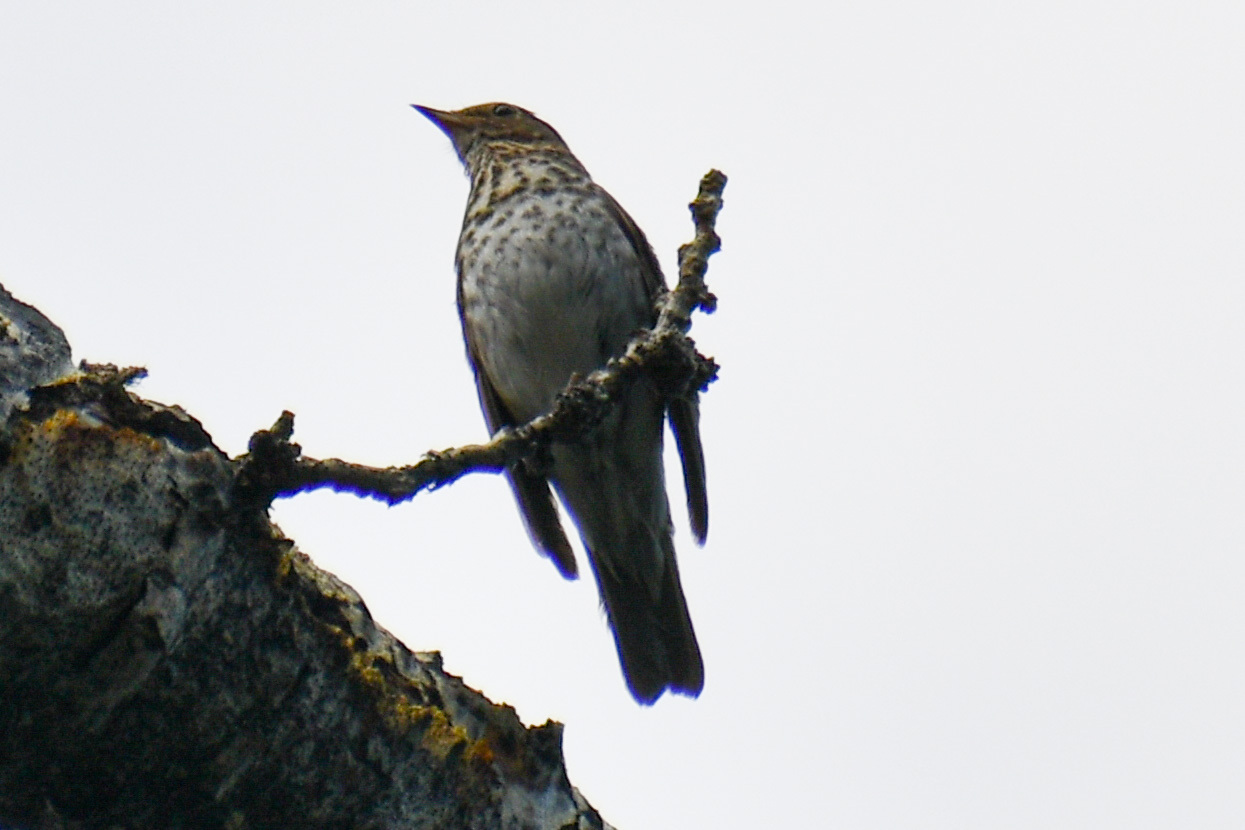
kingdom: Animalia
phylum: Chordata
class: Aves
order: Passeriformes
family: Turdidae
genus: Catharus
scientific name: Catharus ustulatus
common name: Swainson's thrush
